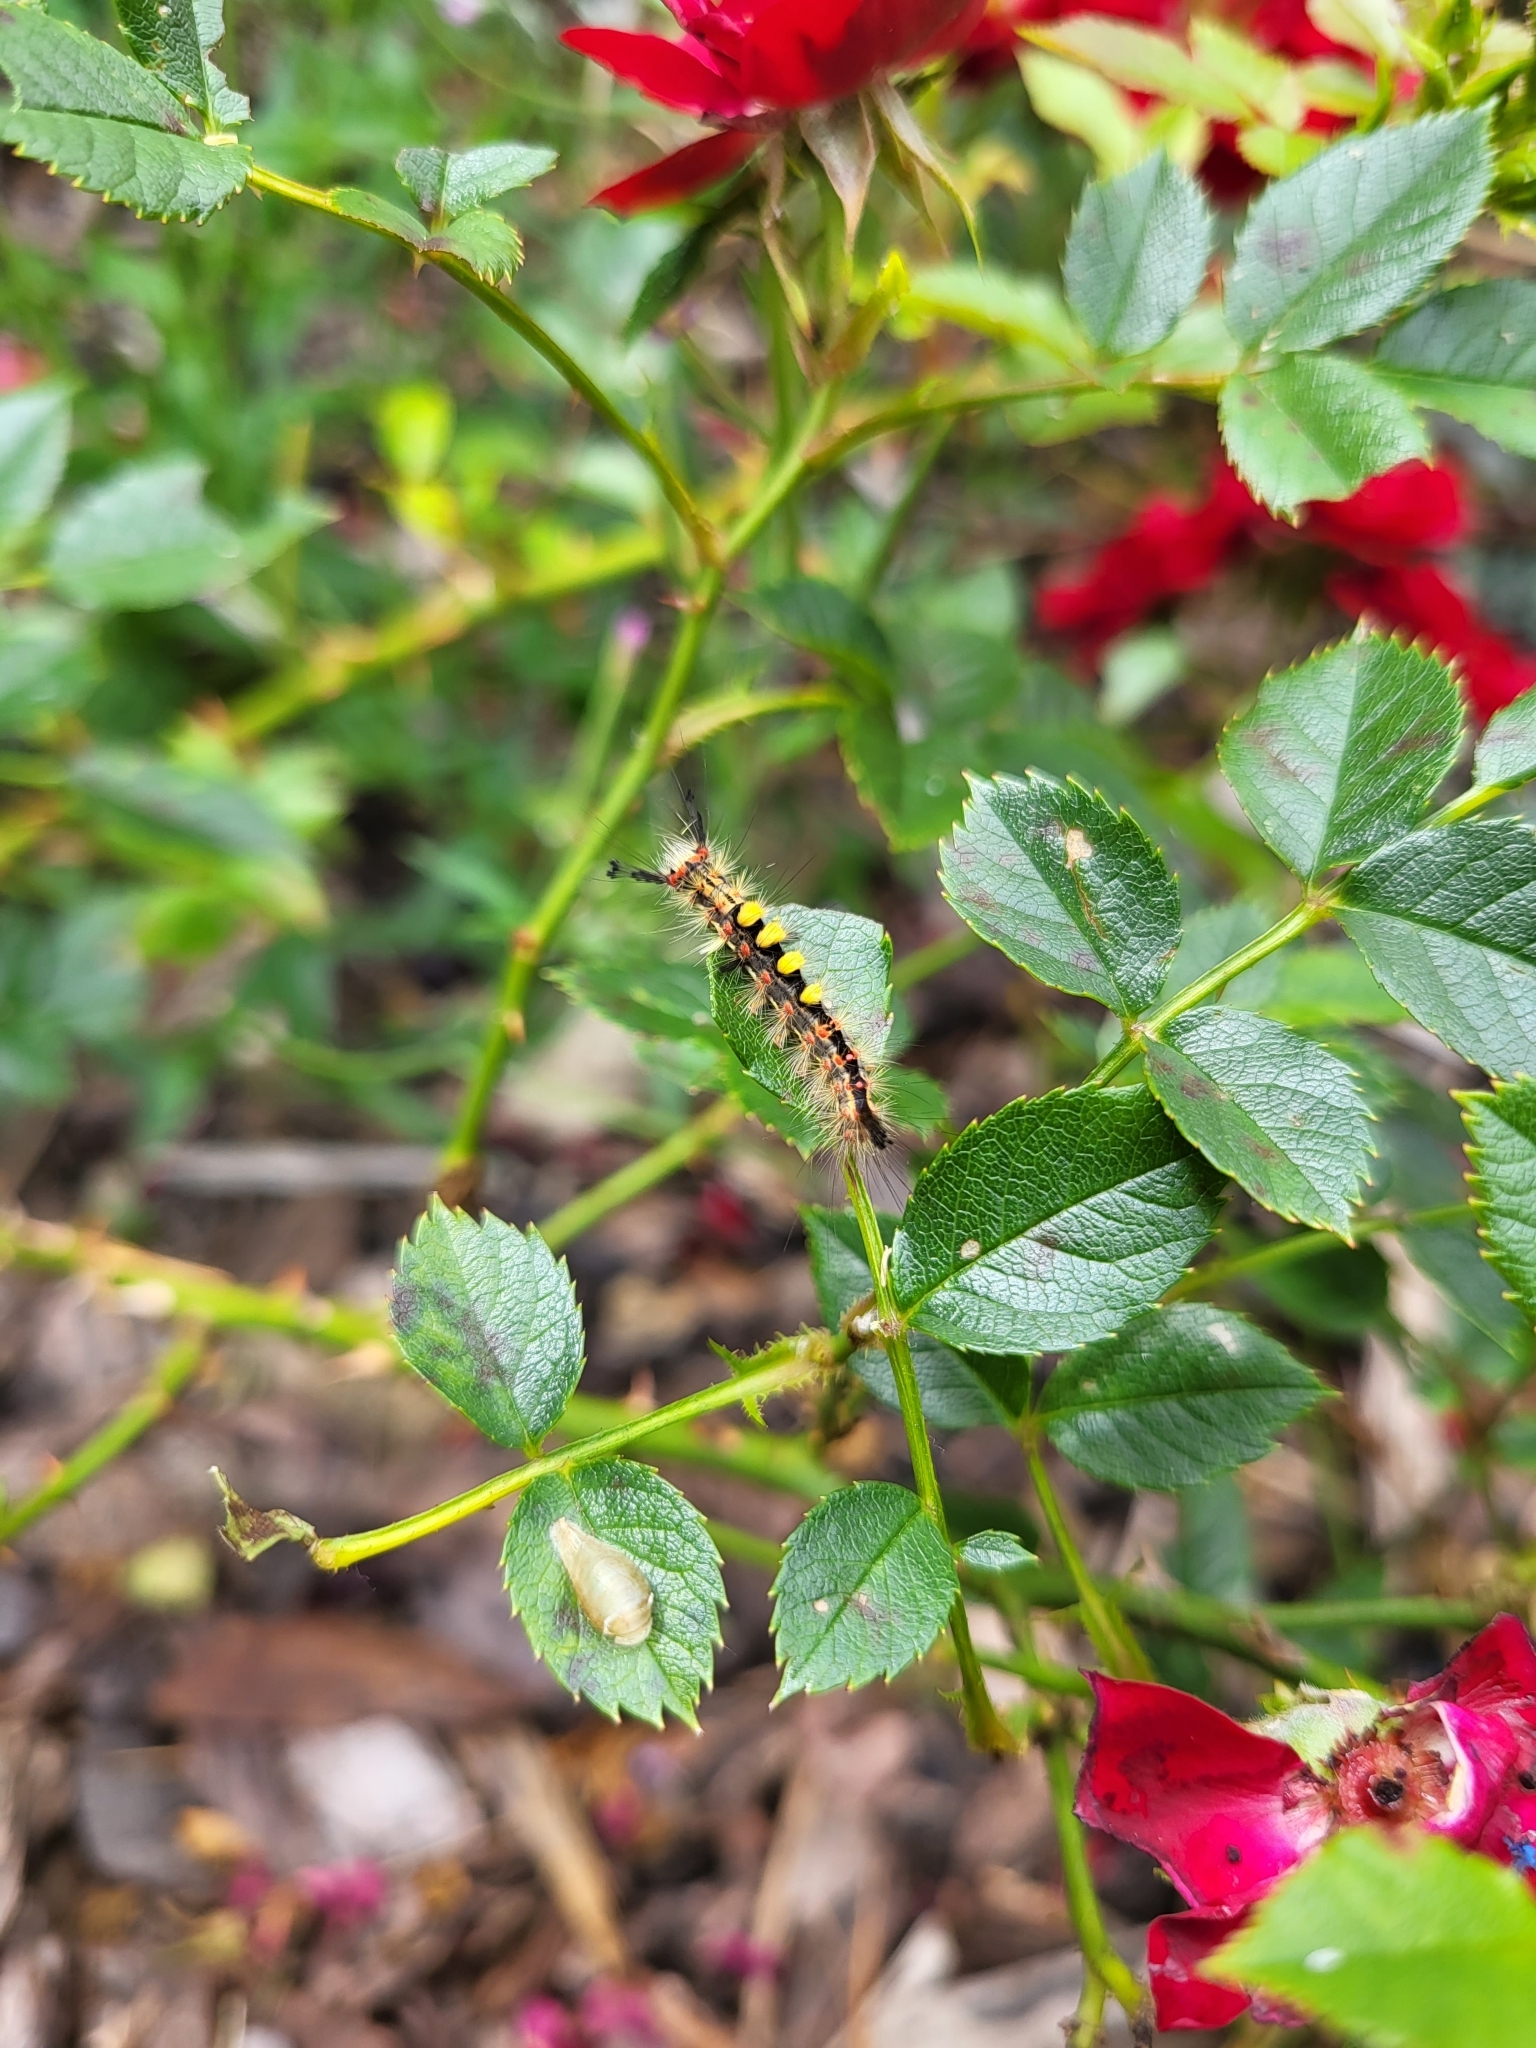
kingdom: Animalia
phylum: Arthropoda
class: Insecta
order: Lepidoptera
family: Erebidae
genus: Orgyia
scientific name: Orgyia antiqua
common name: Vapourer
